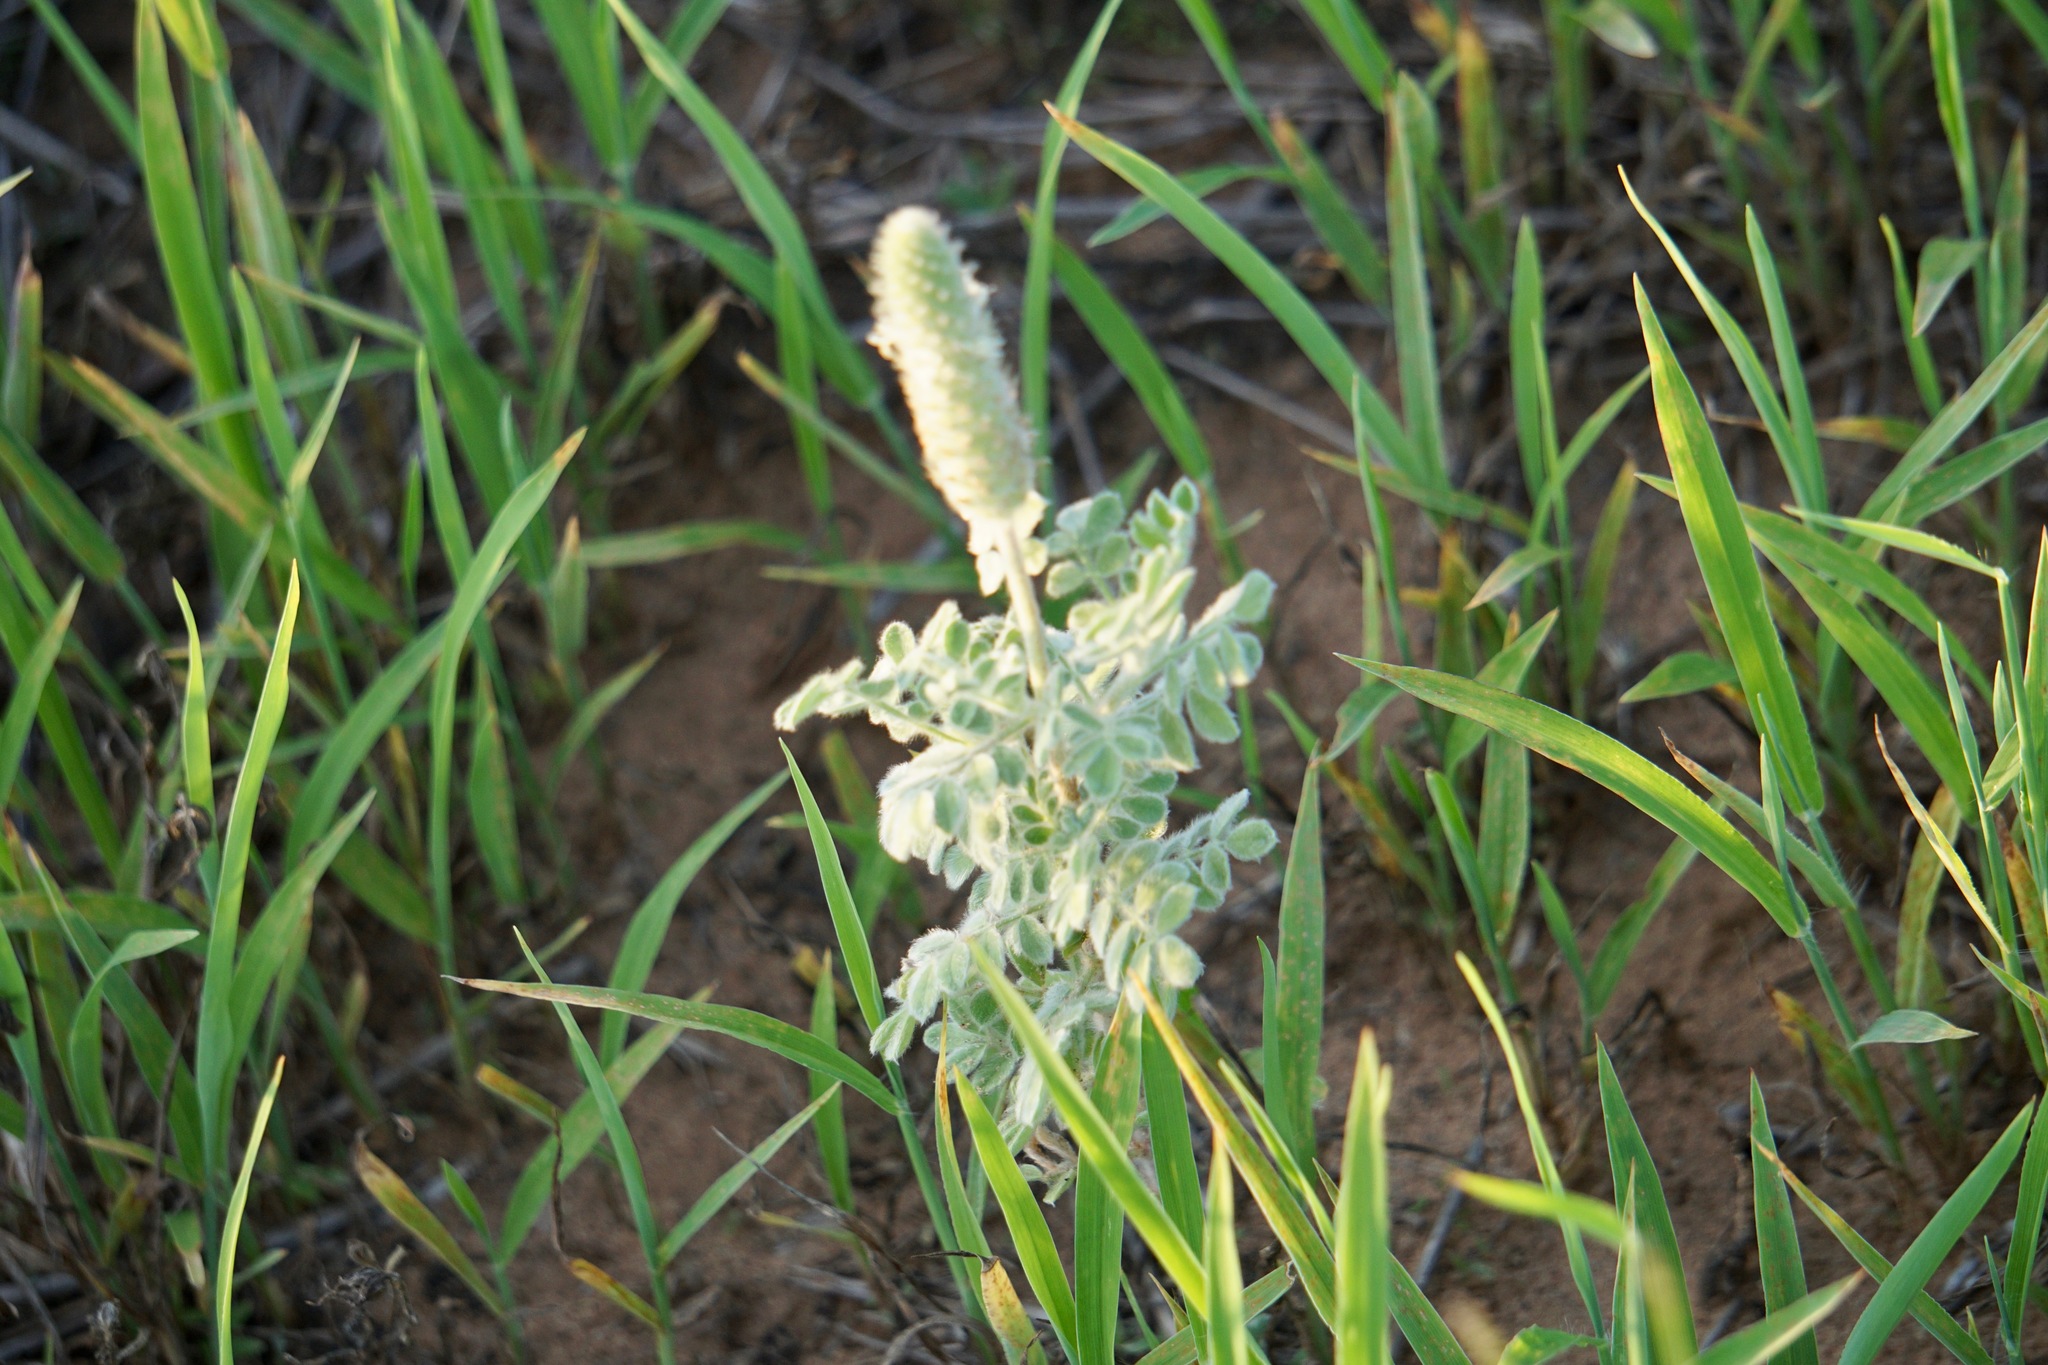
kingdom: Plantae
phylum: Tracheophyta
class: Magnoliopsida
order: Fabales
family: Fabaceae
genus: Dalea
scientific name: Dalea obovata
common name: Pussyfoot
